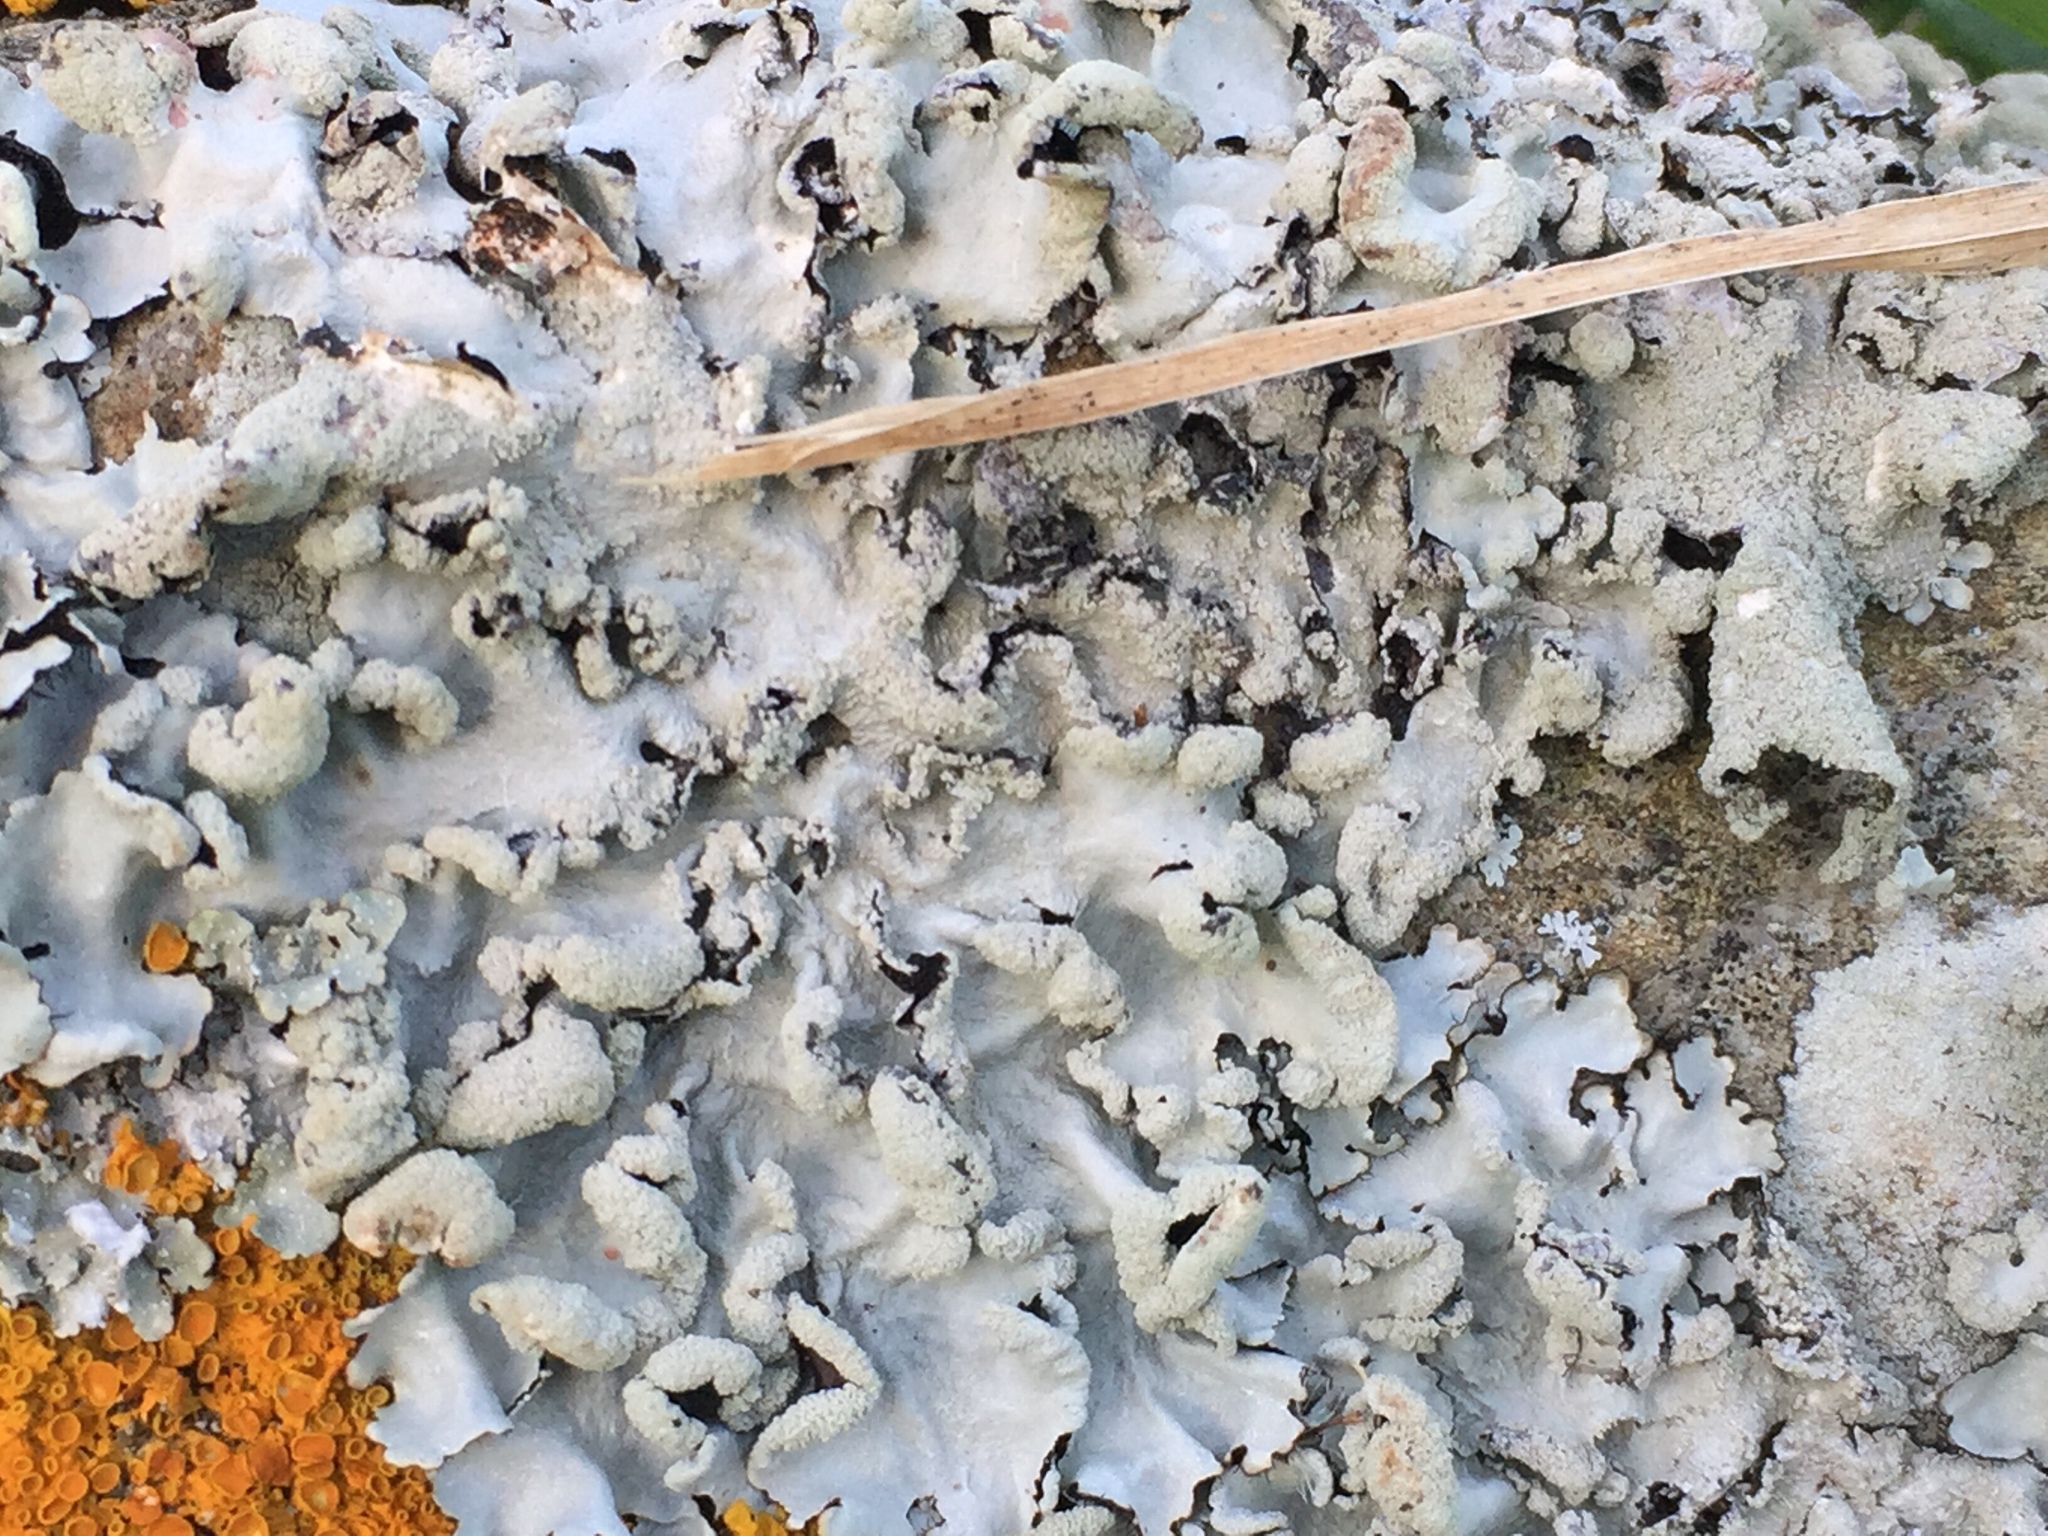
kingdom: Fungi
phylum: Ascomycota
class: Lecanoromycetes
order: Lecanorales
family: Parmeliaceae
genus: Parmotrema
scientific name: Parmotrema perlatum
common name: Black stone flower
